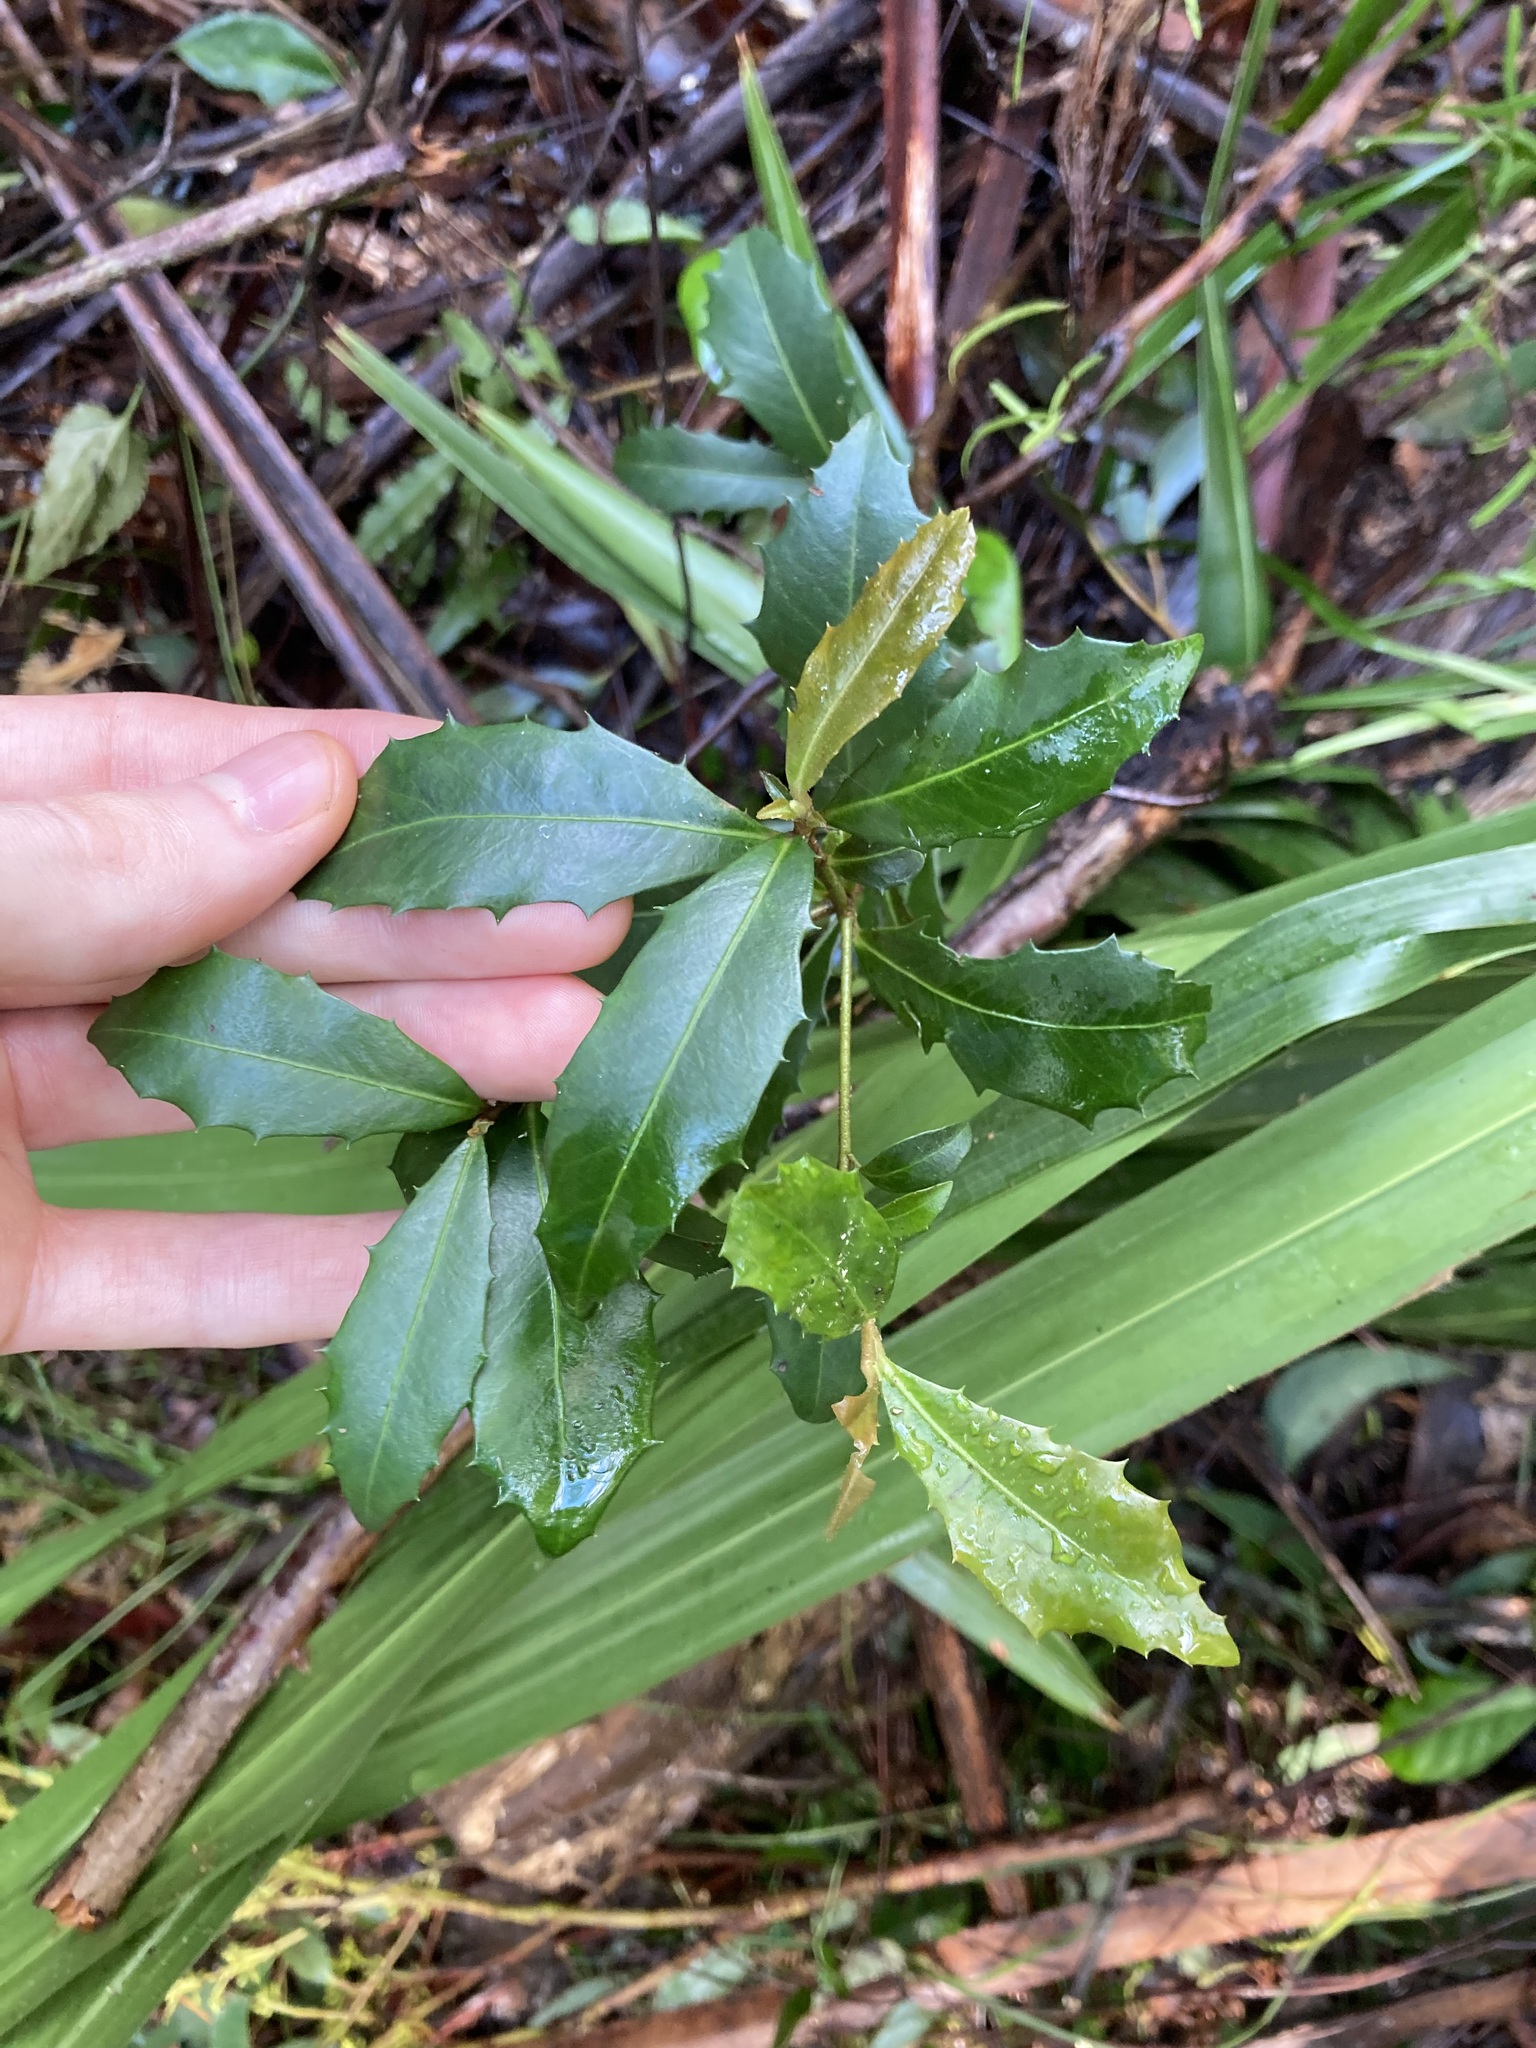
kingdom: Plantae
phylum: Tracheophyta
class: Magnoliopsida
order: Ericales
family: Primulaceae
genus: Myrsine
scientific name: Myrsine variabilis
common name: Brush muttonwood
